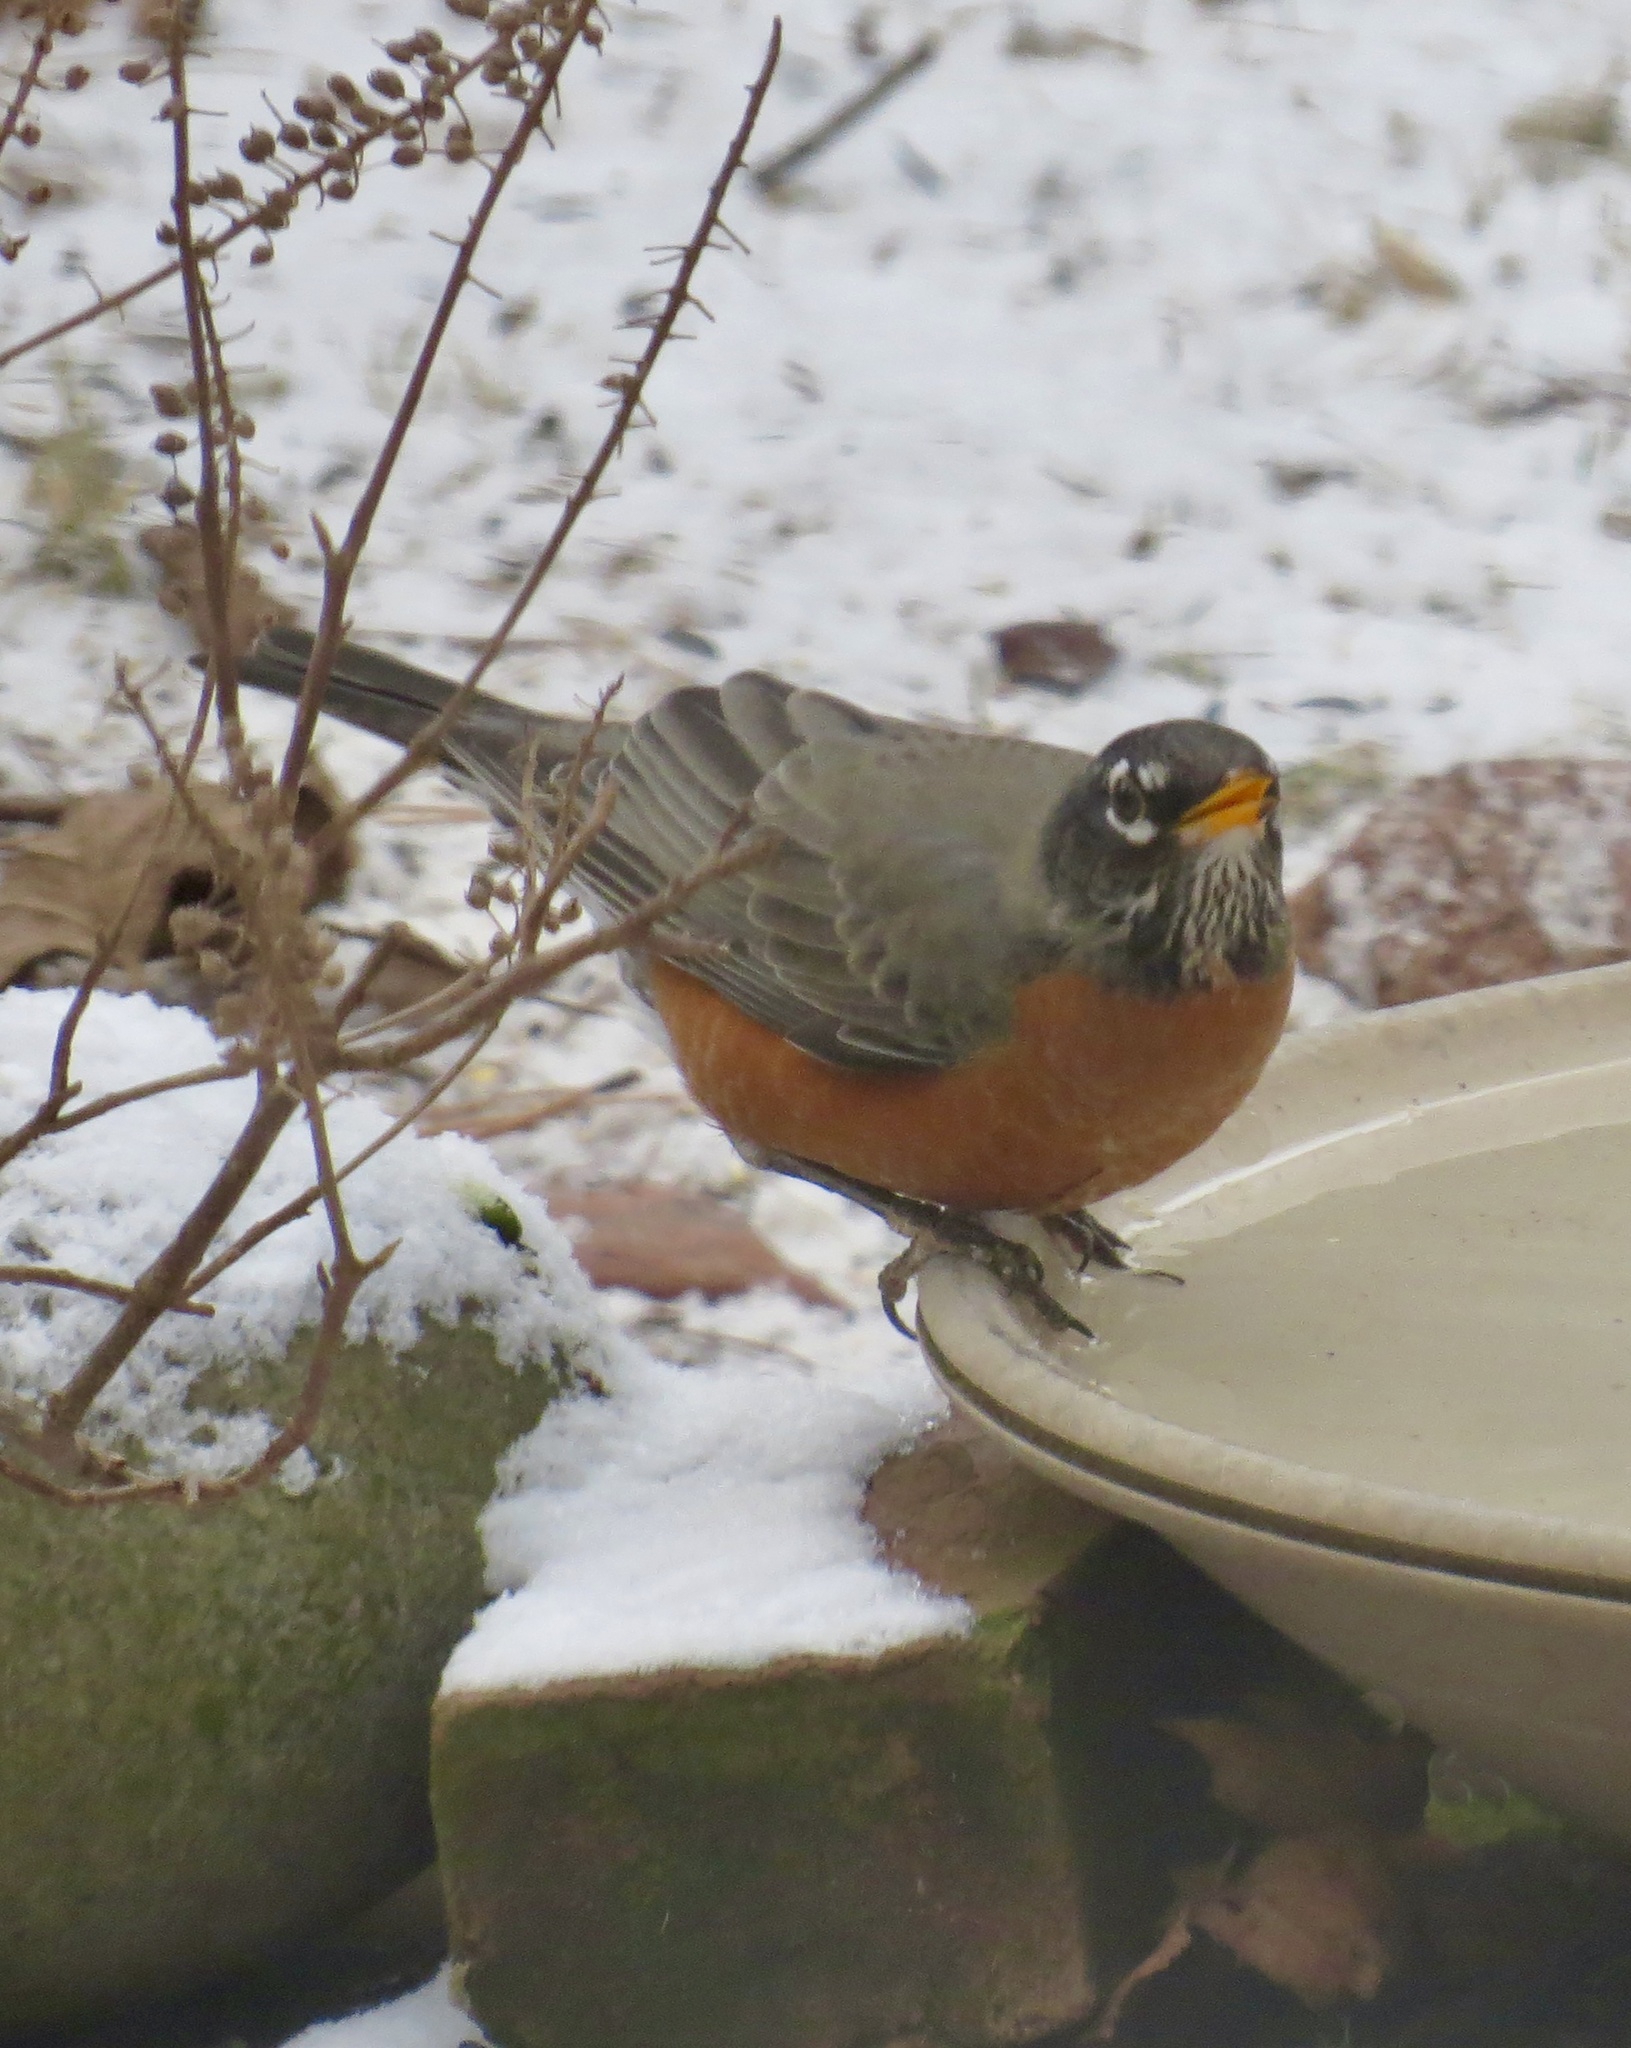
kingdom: Animalia
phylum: Chordata
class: Aves
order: Passeriformes
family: Turdidae
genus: Turdus
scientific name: Turdus migratorius
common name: American robin
